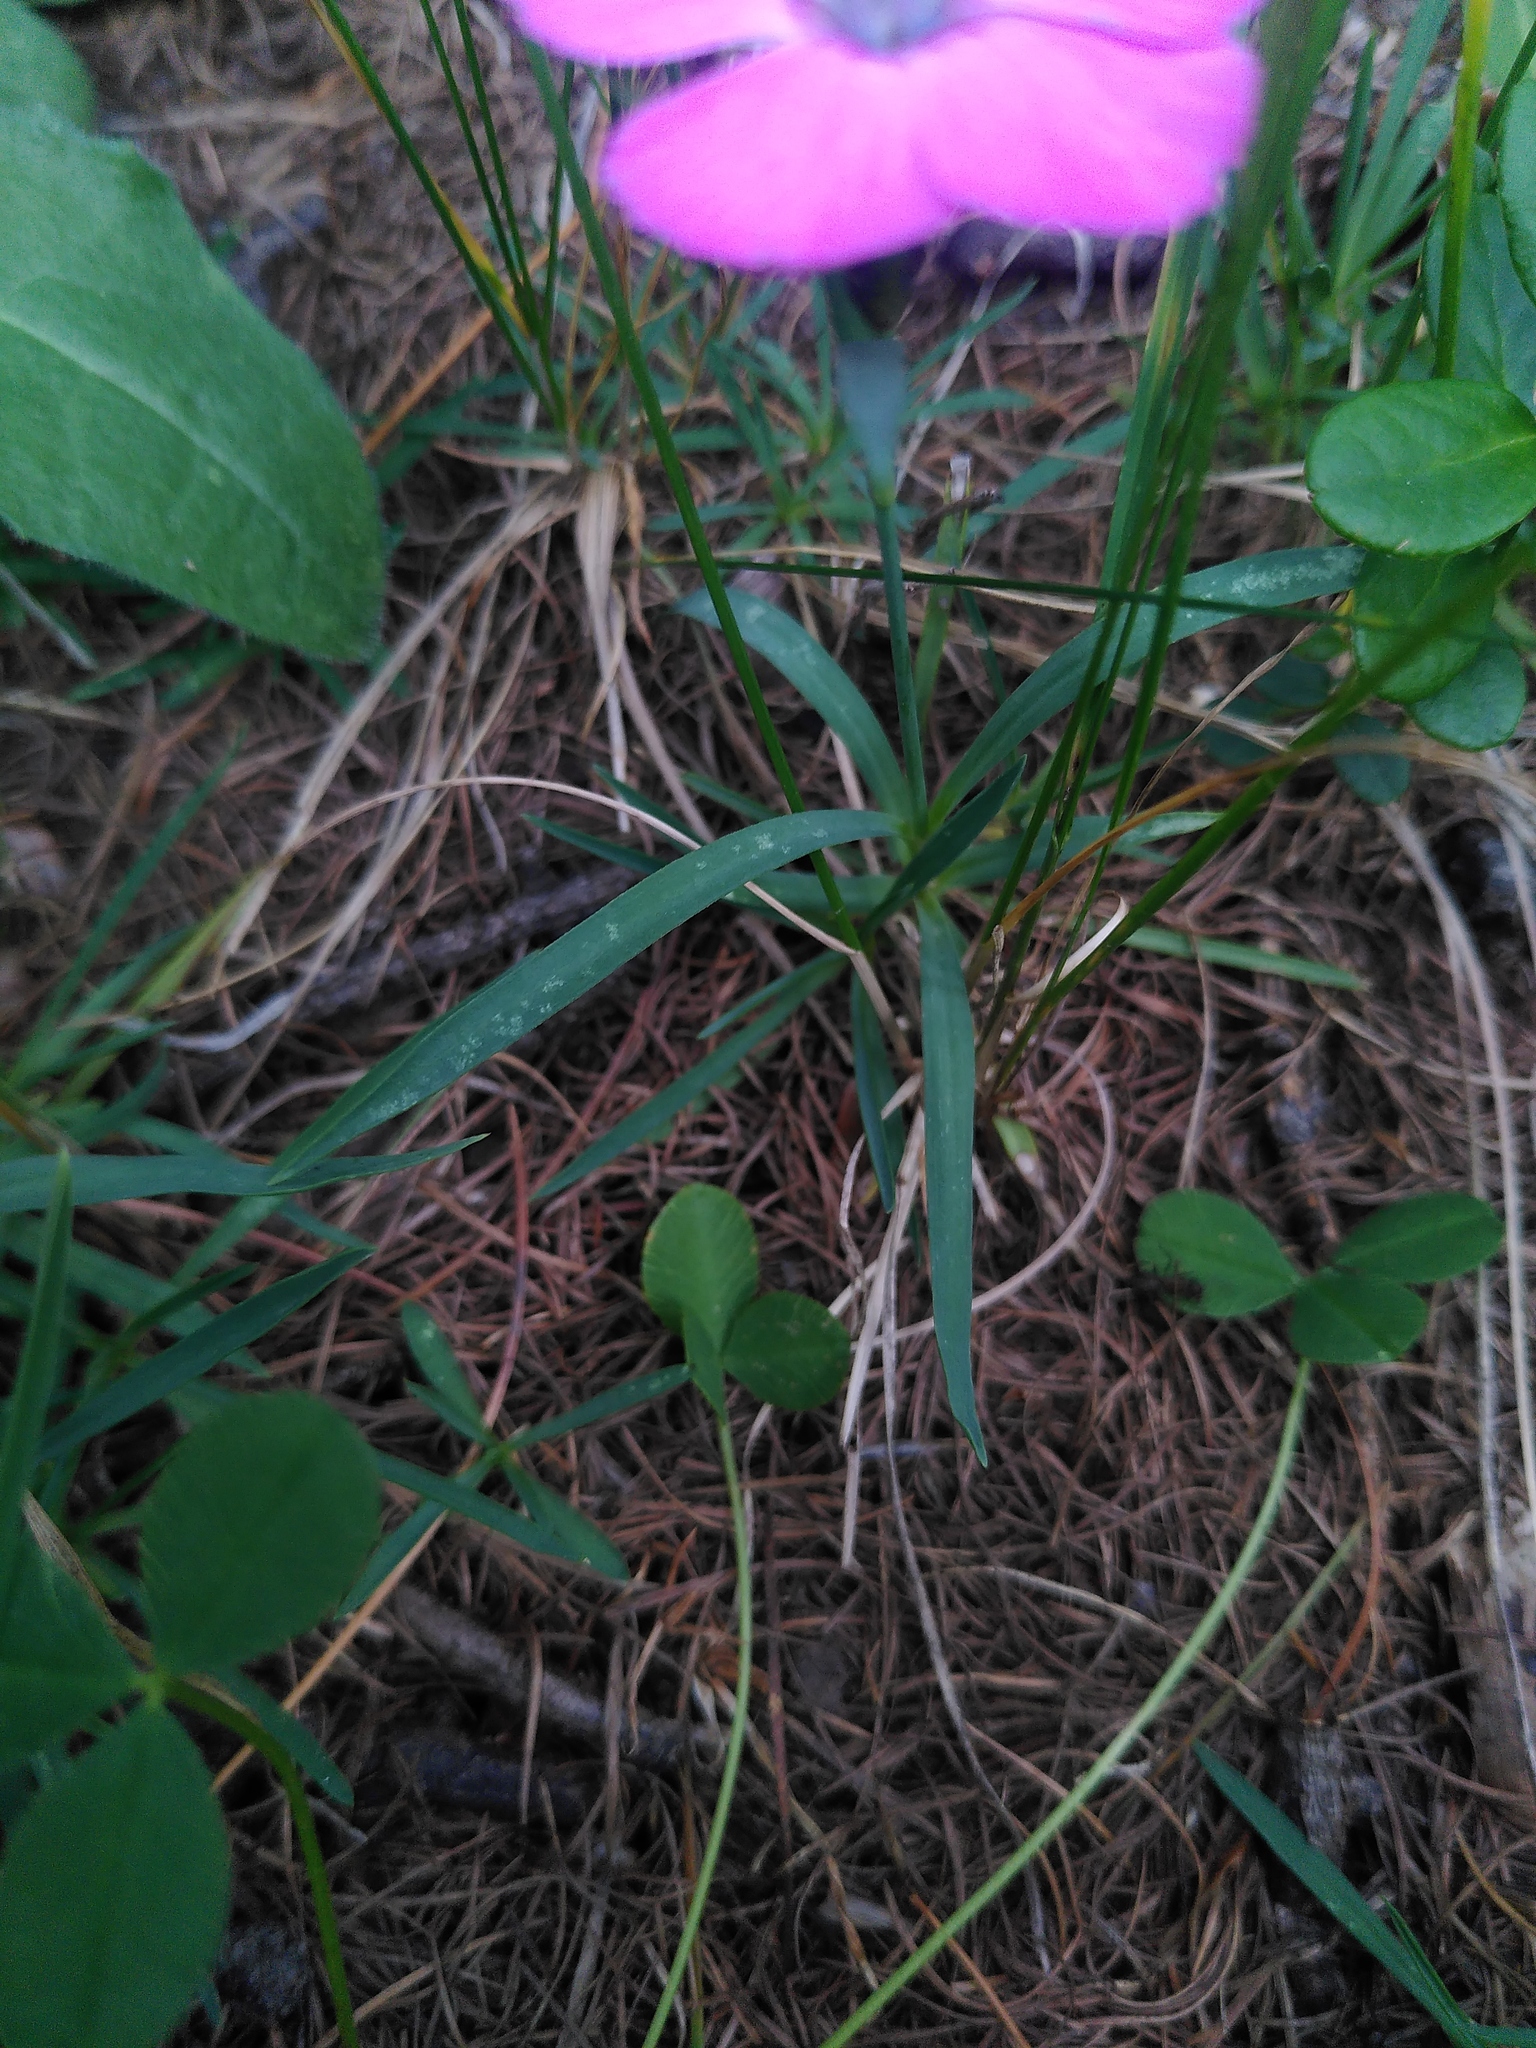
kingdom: Plantae
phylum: Tracheophyta
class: Magnoliopsida
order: Caryophyllales
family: Caryophyllaceae
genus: Dianthus
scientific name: Dianthus pavonius
